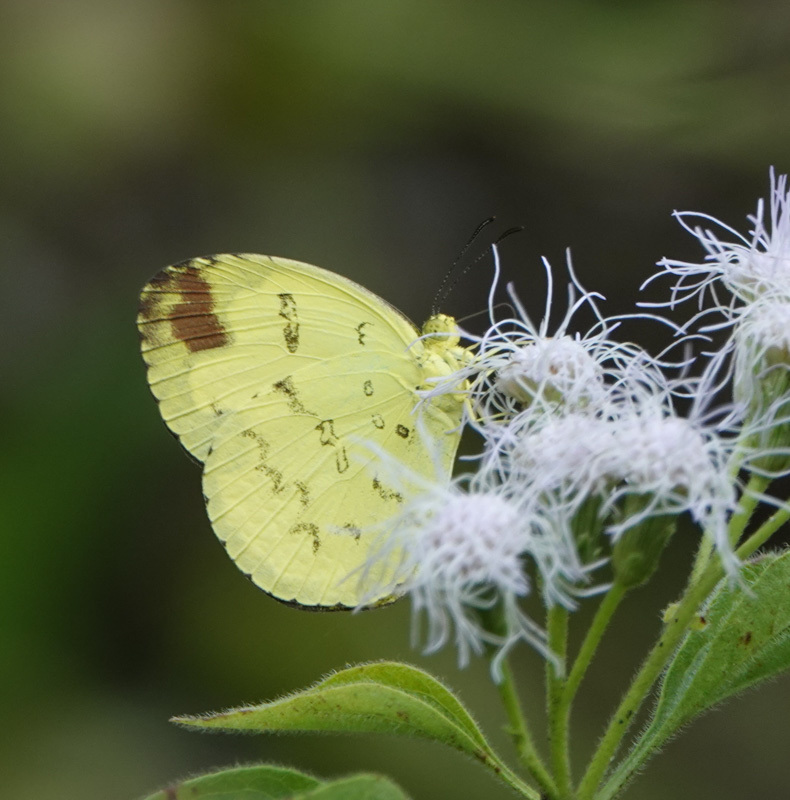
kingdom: Animalia
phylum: Arthropoda
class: Insecta
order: Lepidoptera
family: Pieridae
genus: Eurema
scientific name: Eurema andersoni
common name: One-spot yellow grass
